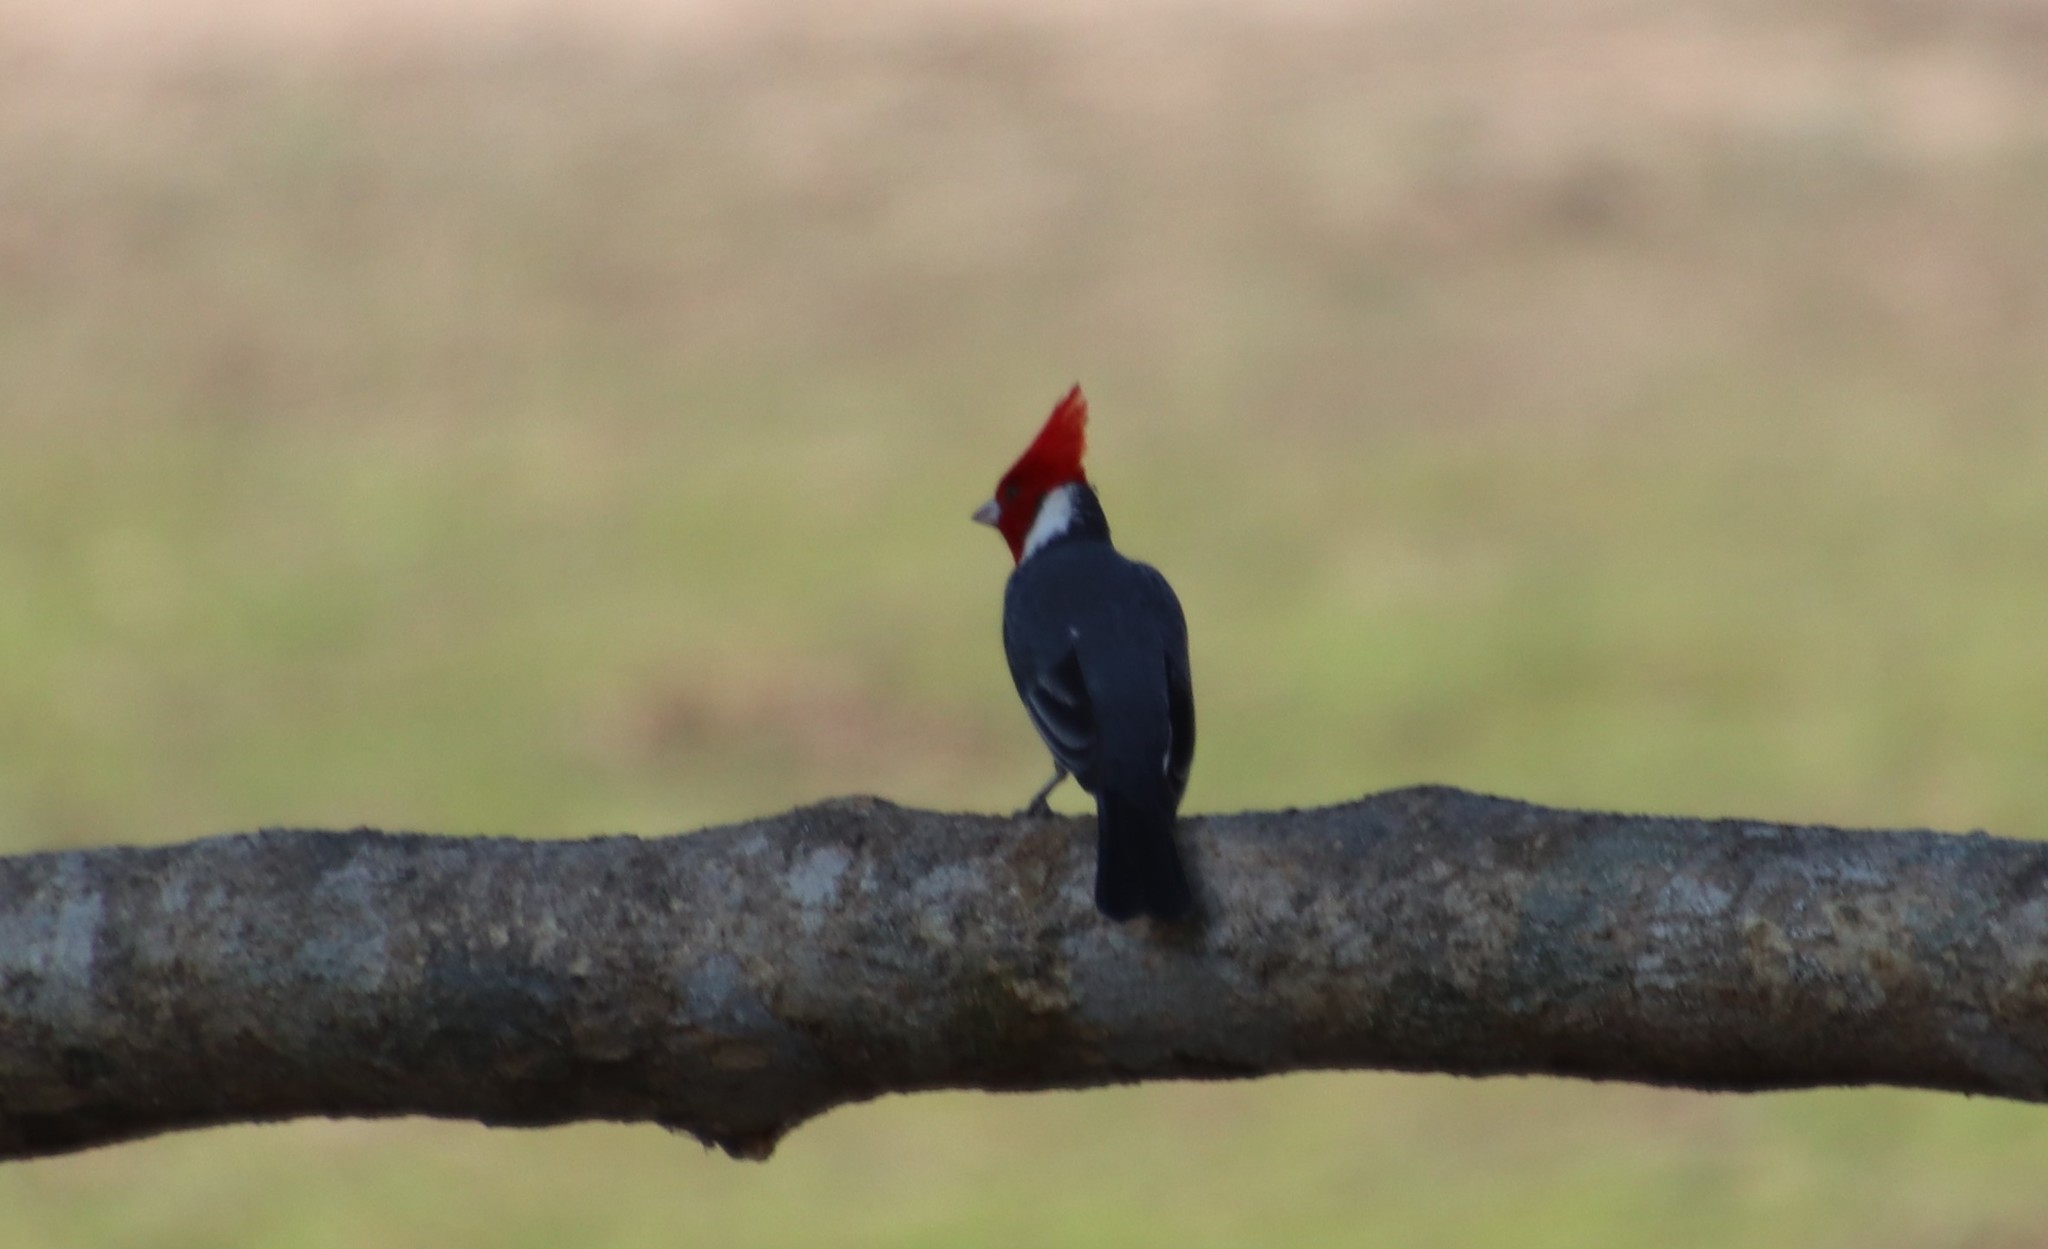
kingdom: Animalia
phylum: Chordata
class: Aves
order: Passeriformes
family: Thraupidae
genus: Paroaria
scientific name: Paroaria coronata
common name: Red-crested cardinal
